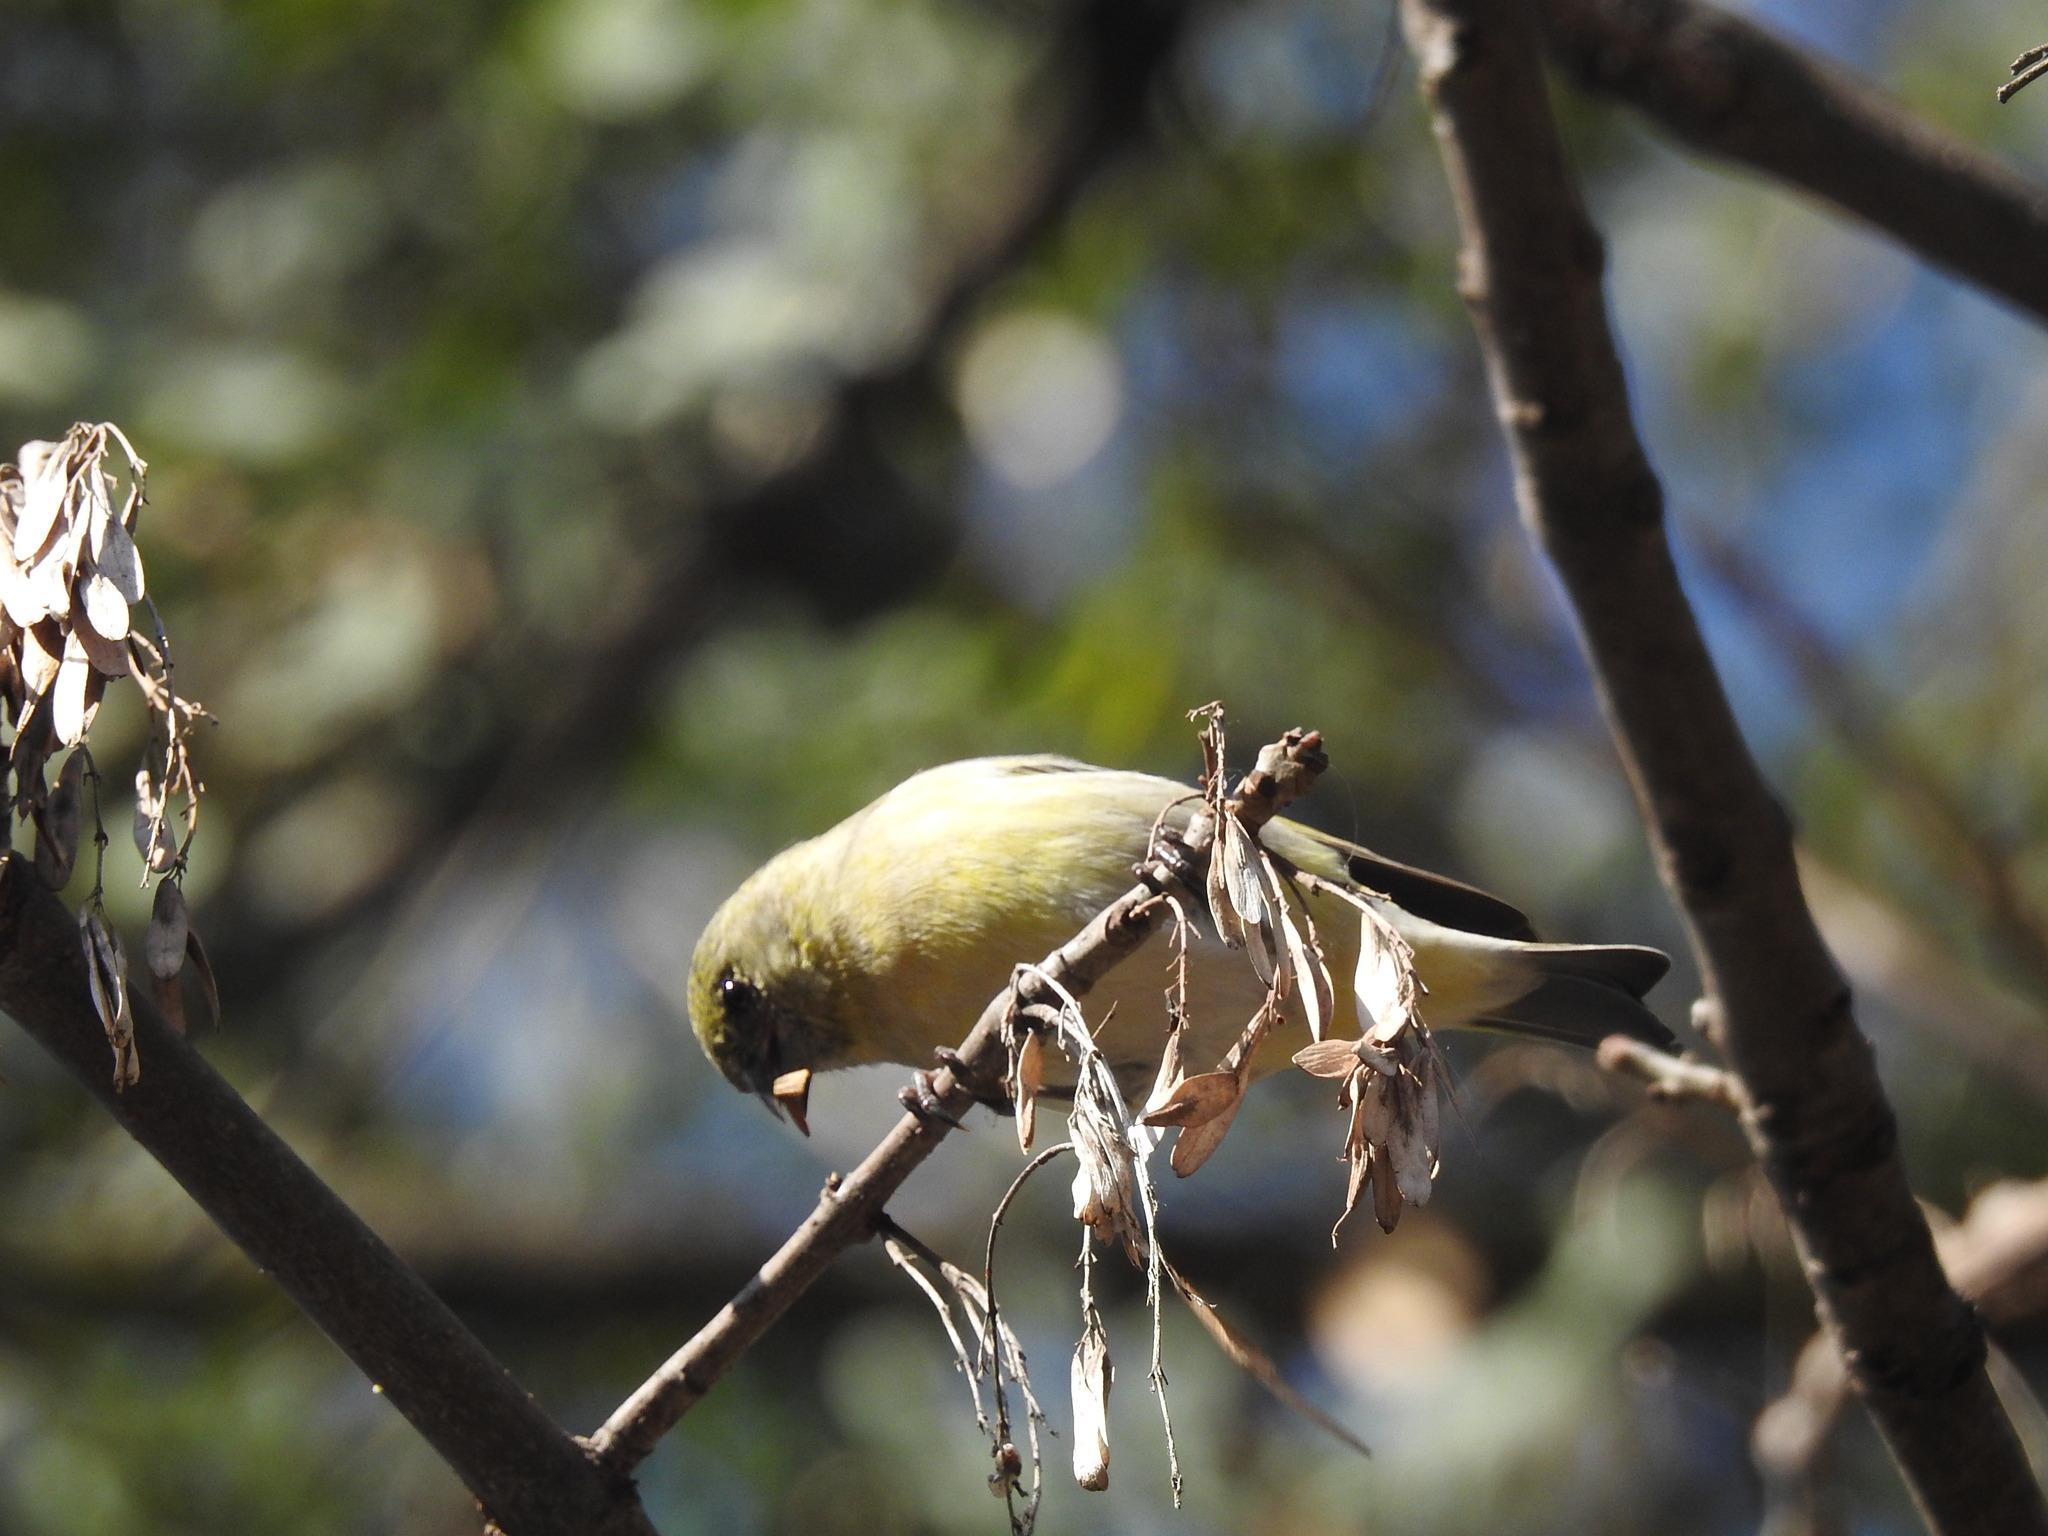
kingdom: Animalia
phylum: Chordata
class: Aves
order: Passeriformes
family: Fringillidae
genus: Spinus
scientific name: Spinus magellanicus
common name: Hooded siskin
